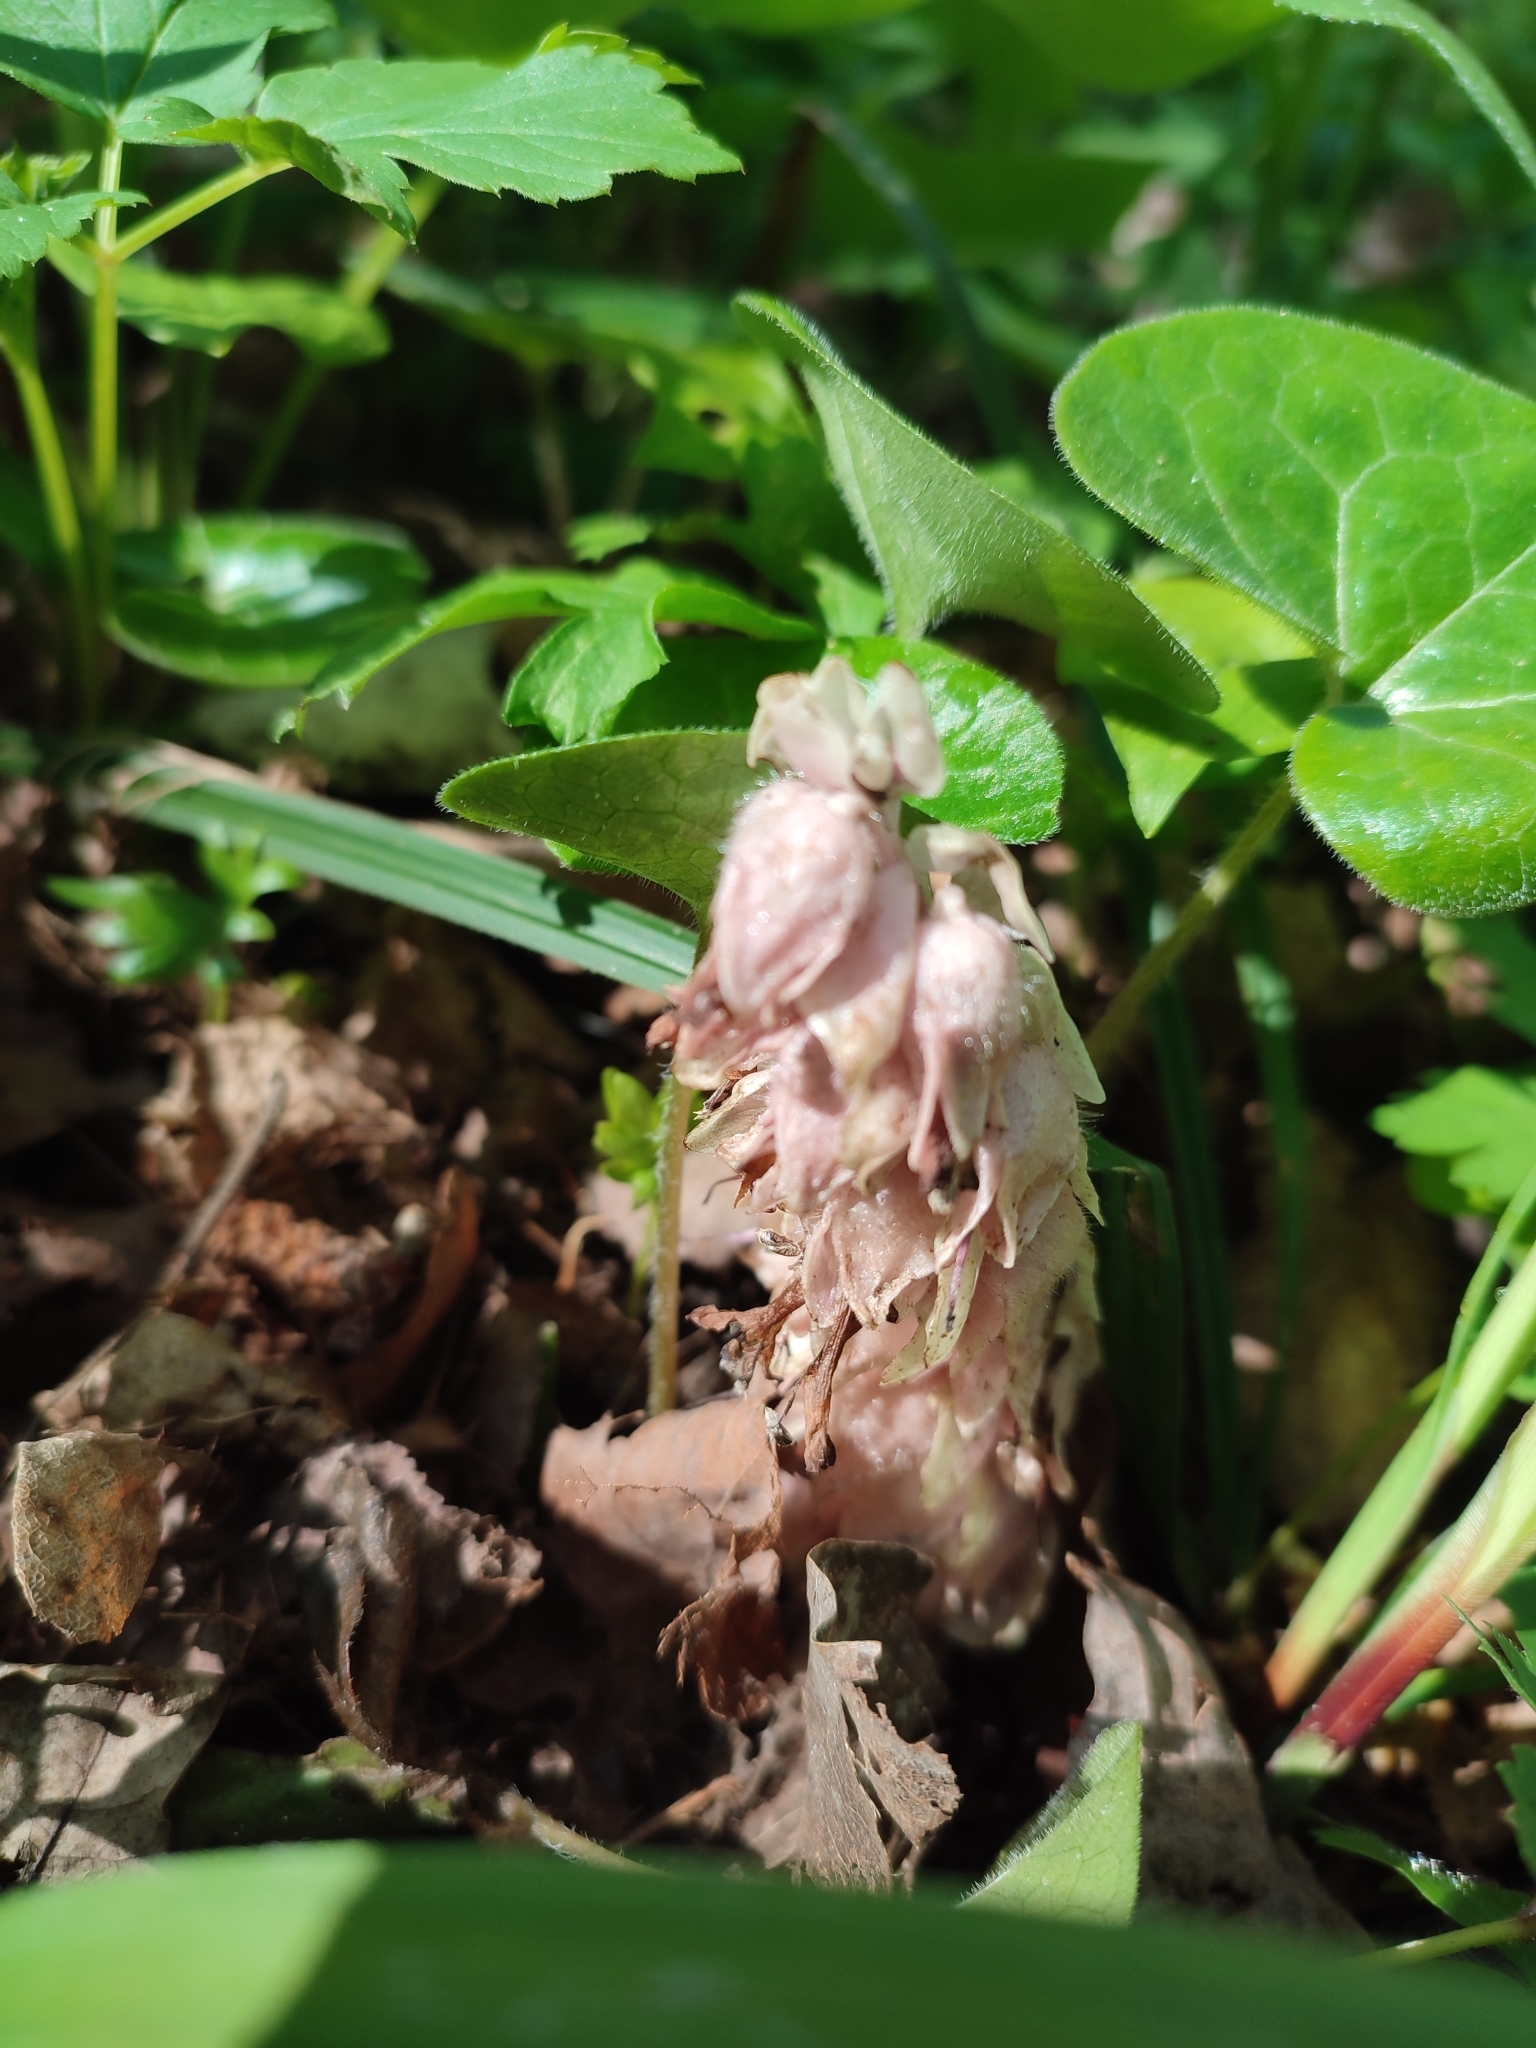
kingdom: Plantae
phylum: Tracheophyta
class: Magnoliopsida
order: Lamiales
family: Orobanchaceae
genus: Lathraea
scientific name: Lathraea squamaria
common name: Toothwort
